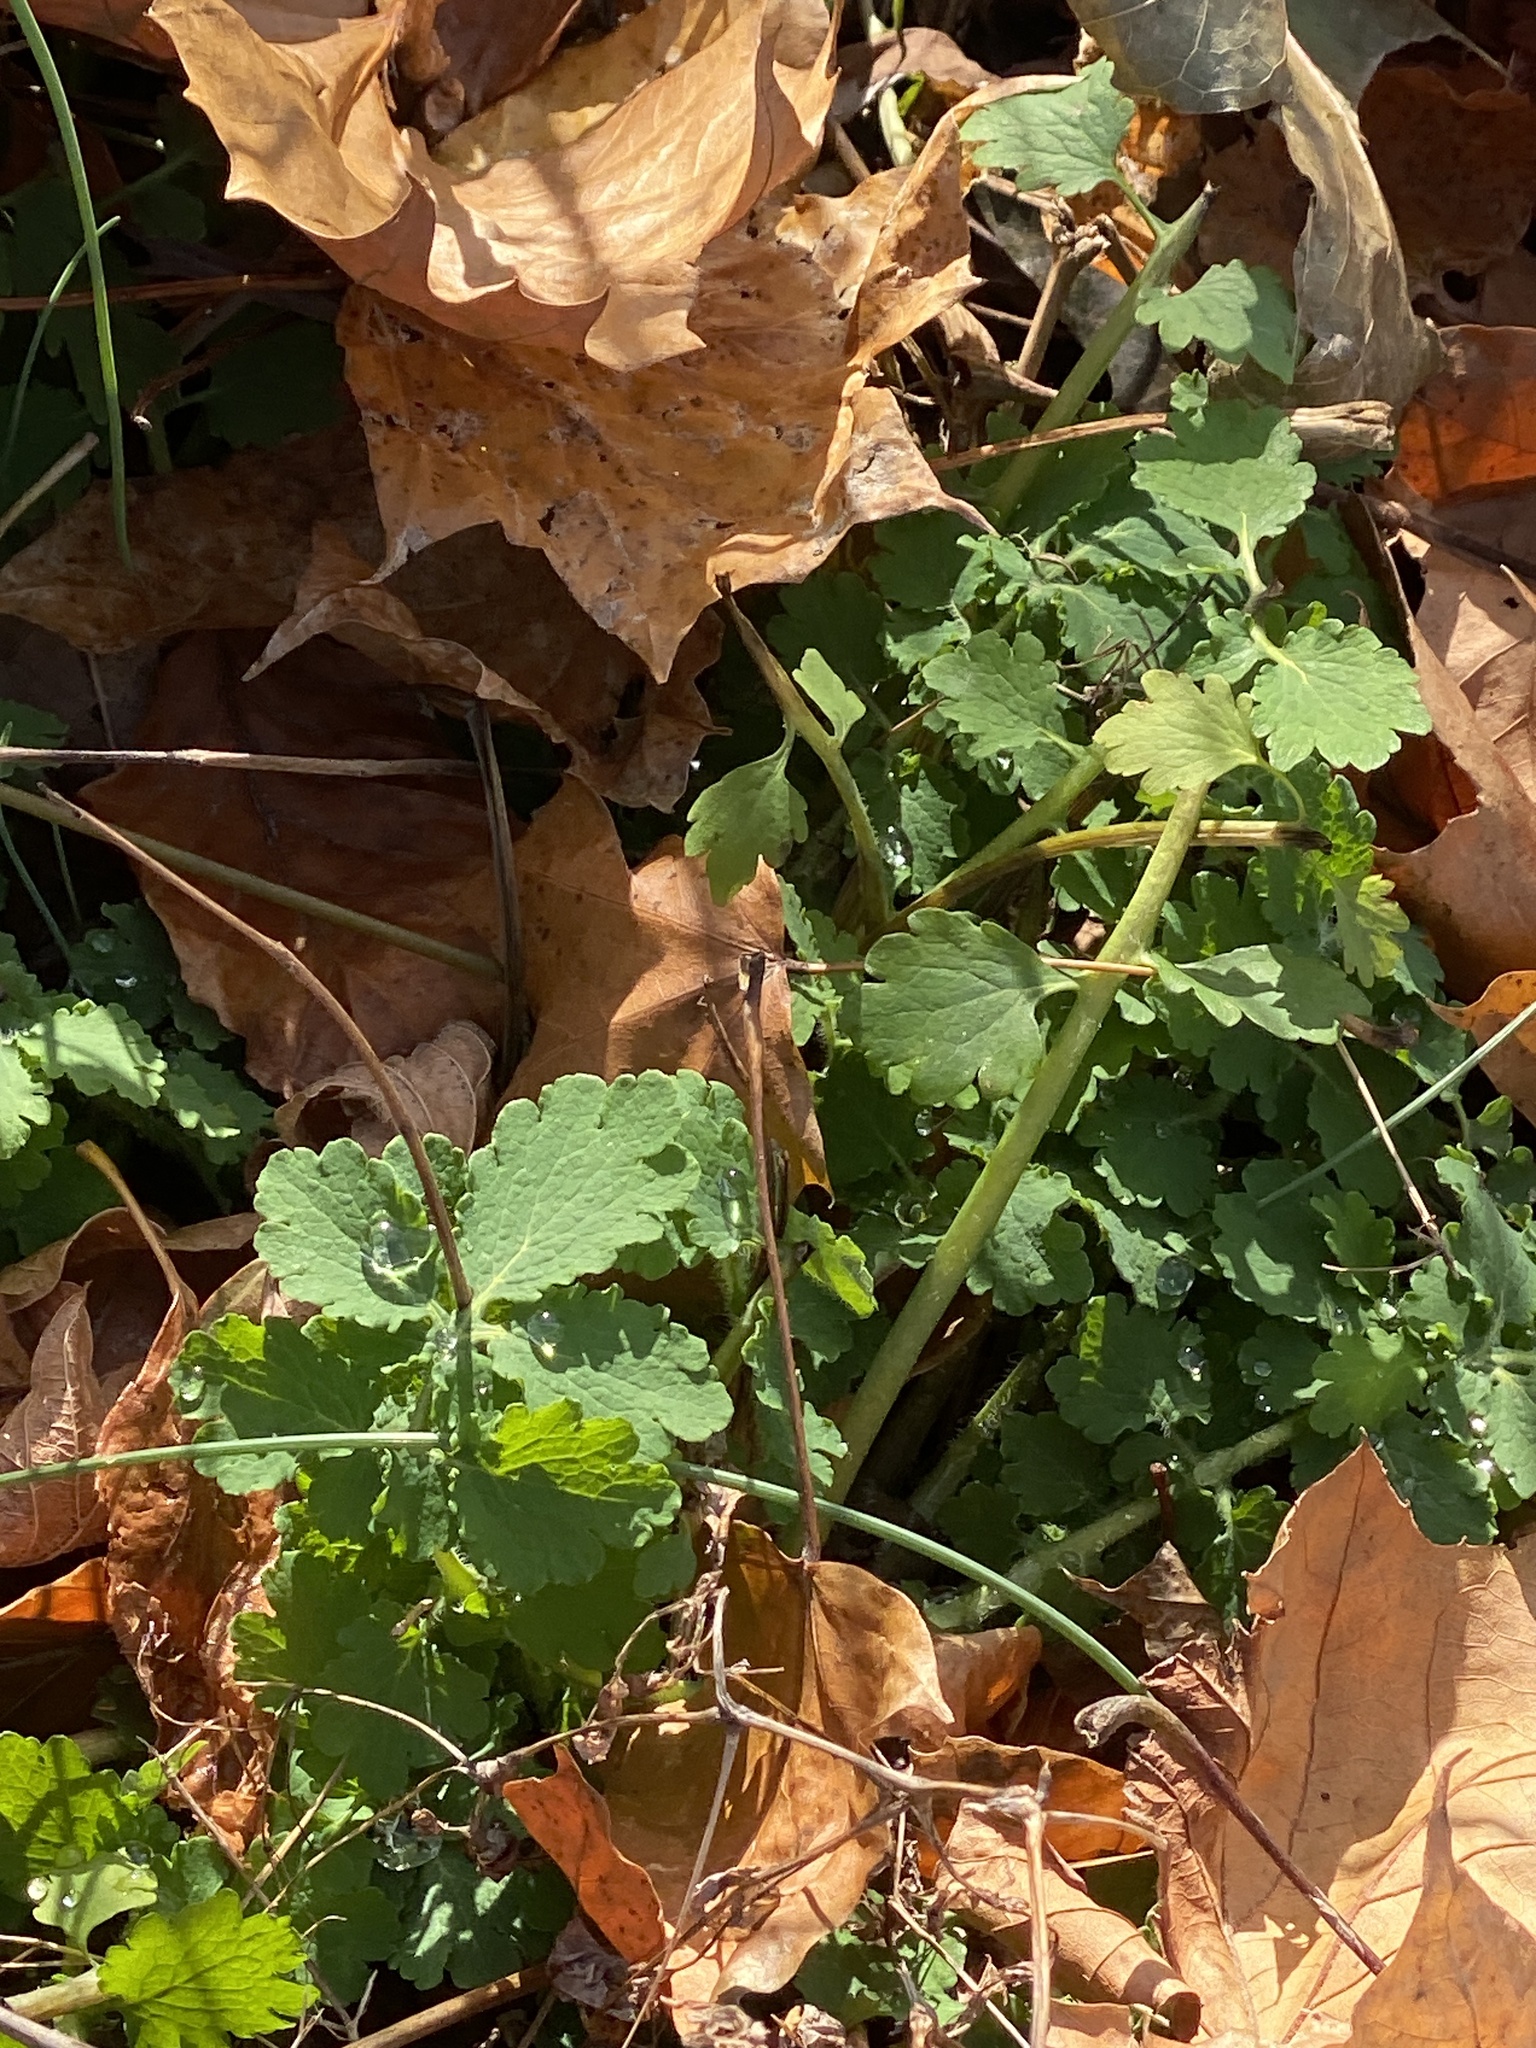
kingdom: Plantae
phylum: Tracheophyta
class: Magnoliopsida
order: Ranunculales
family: Papaveraceae
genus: Chelidonium
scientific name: Chelidonium majus
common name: Greater celandine
